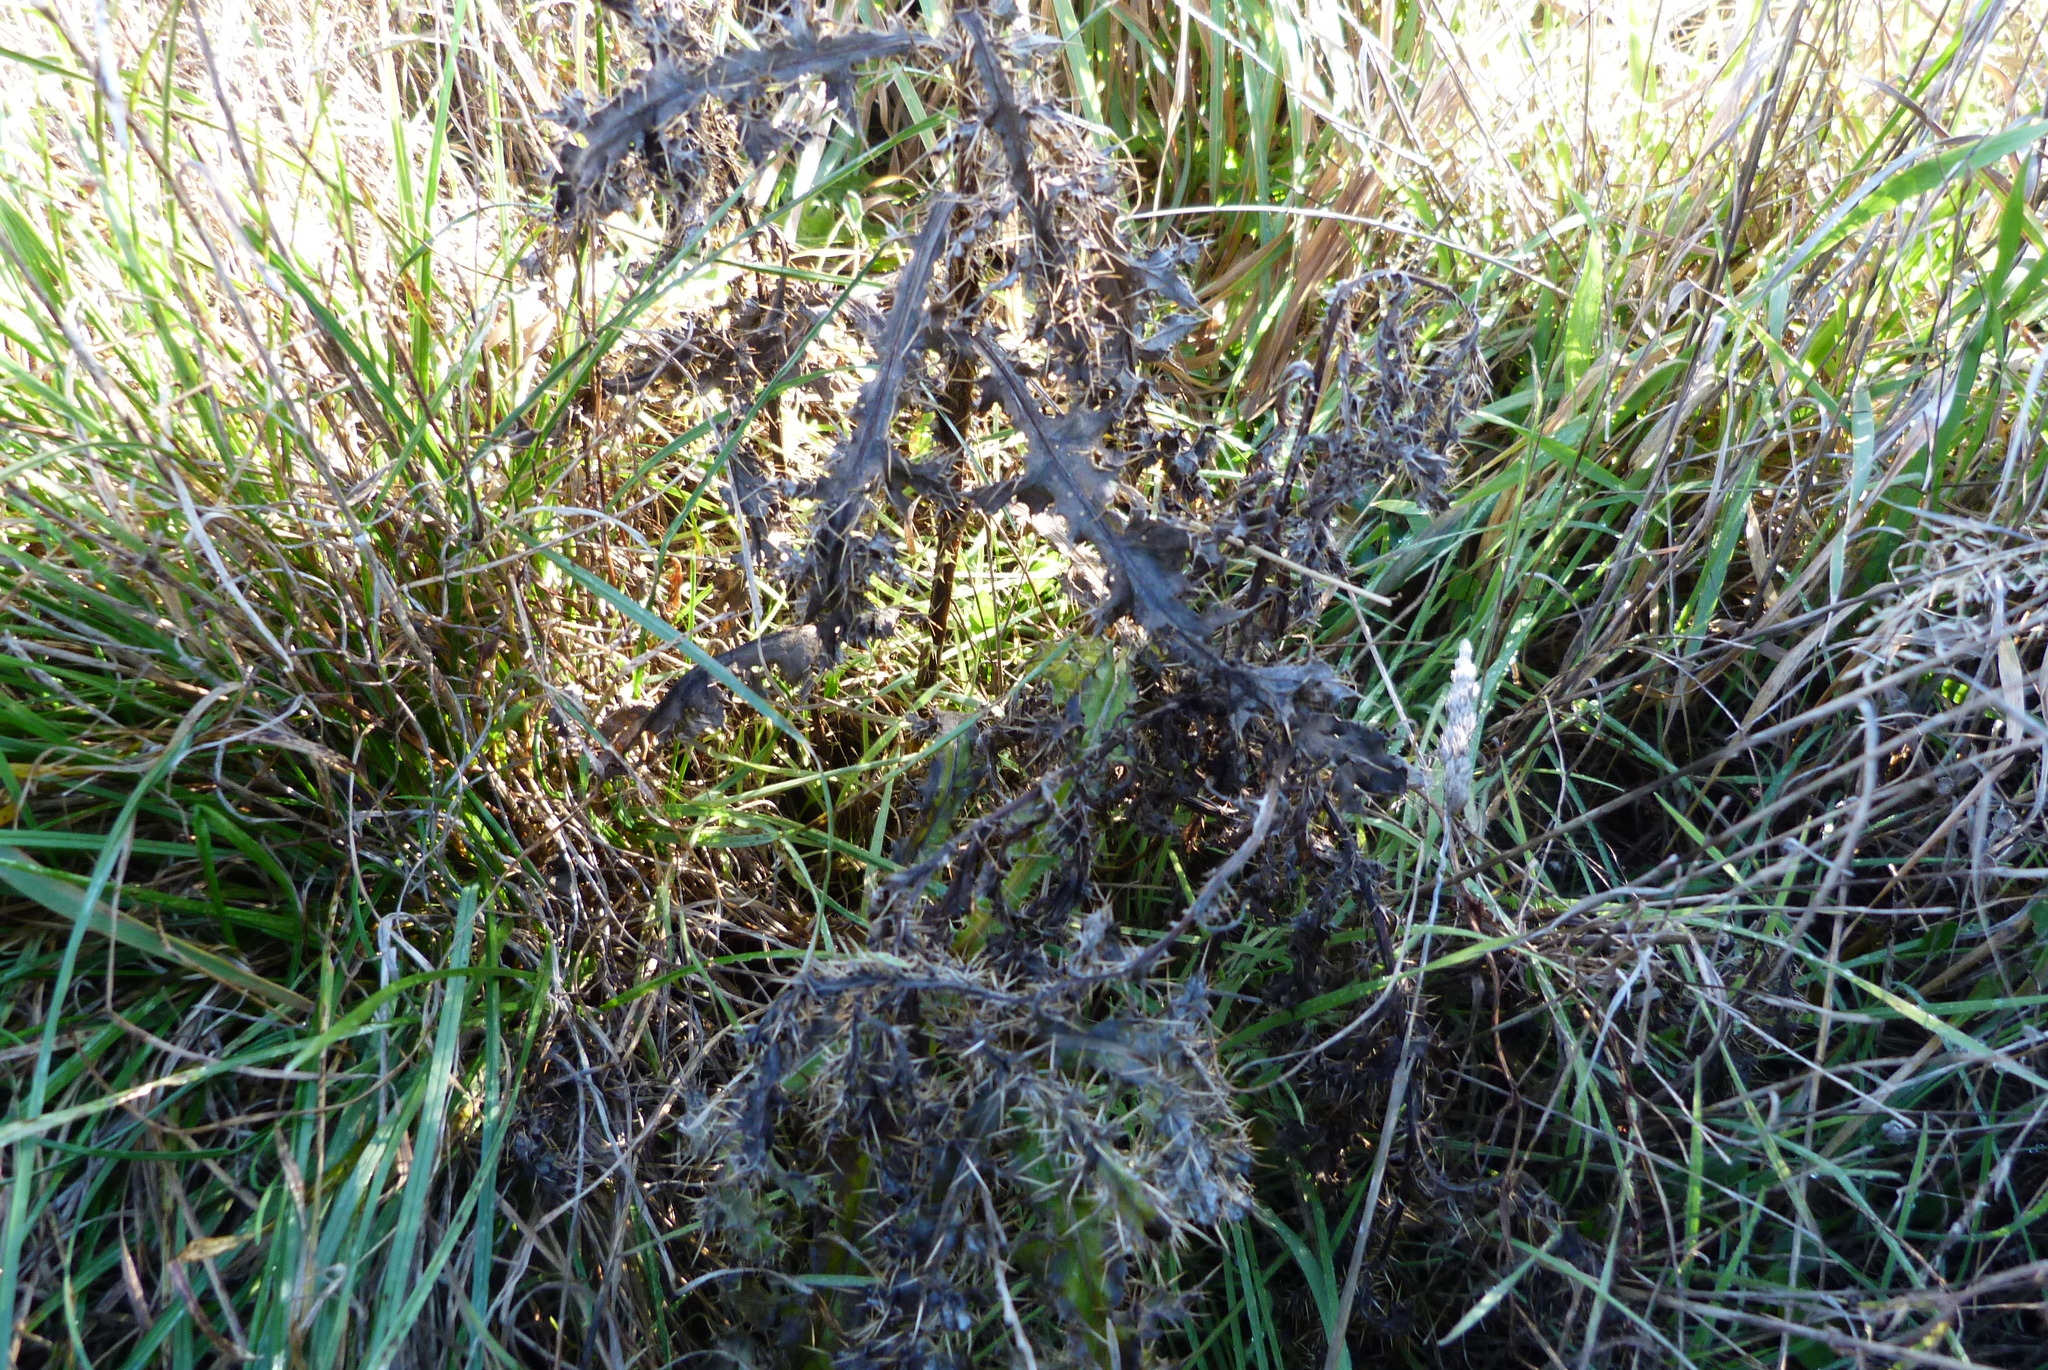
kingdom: Plantae
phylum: Tracheophyta
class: Magnoliopsida
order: Asterales
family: Asteraceae
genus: Cirsium
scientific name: Cirsium arvense
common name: Creeping thistle
